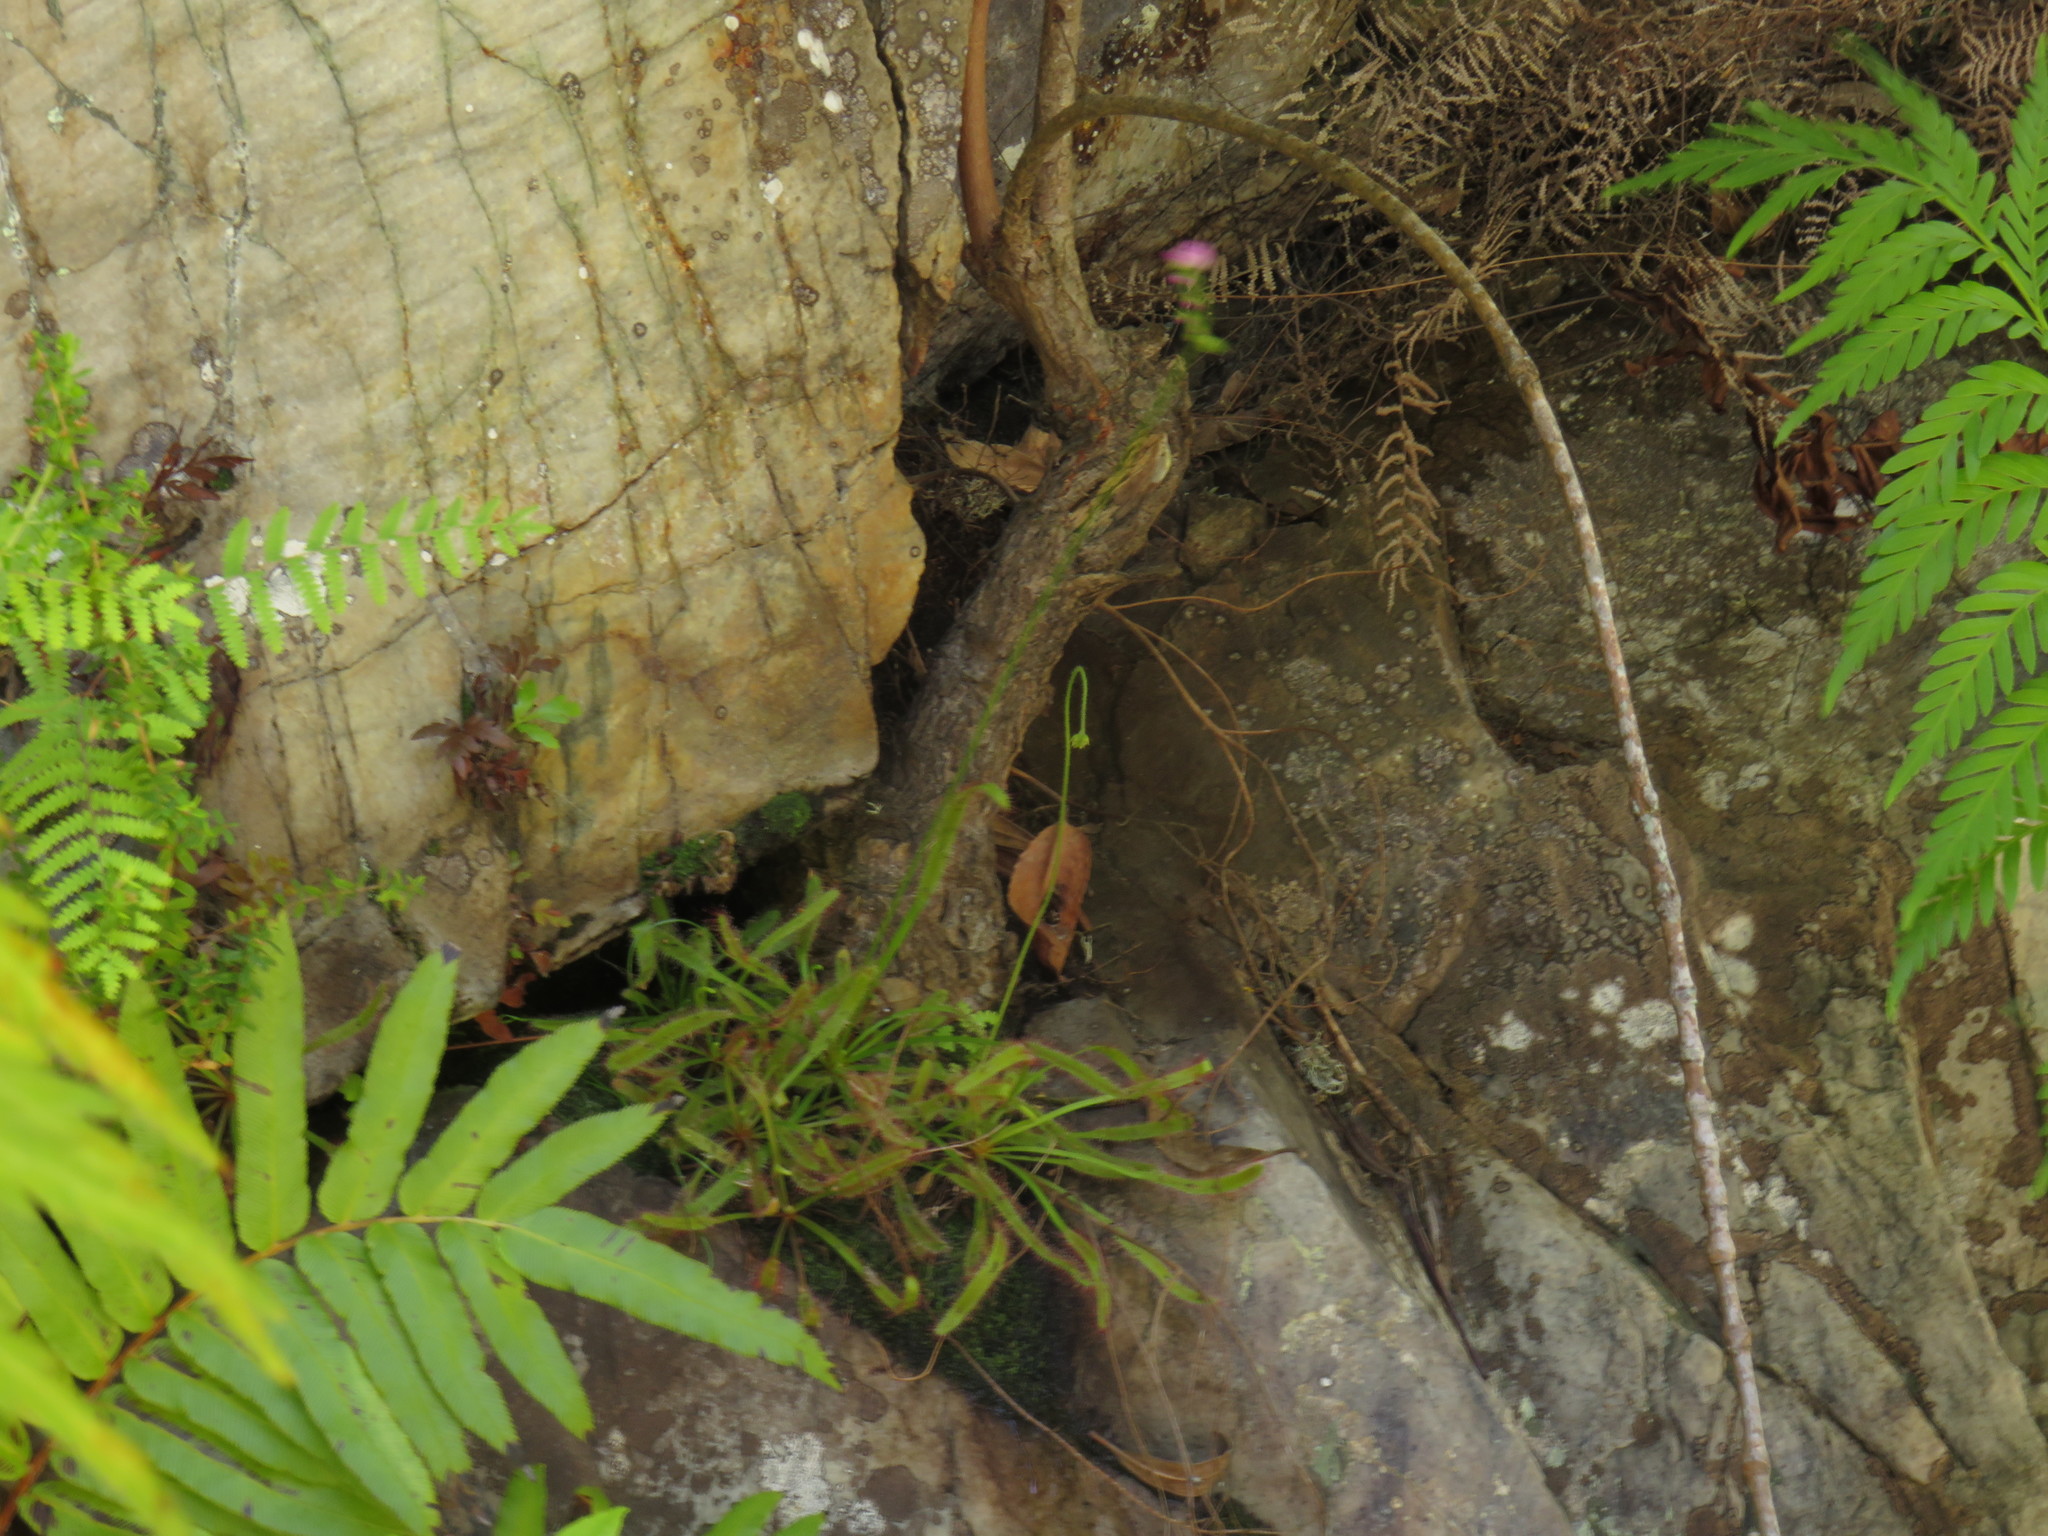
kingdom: Plantae
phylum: Tracheophyta
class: Magnoliopsida
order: Caryophyllales
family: Droseraceae
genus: Drosera
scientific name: Drosera capensis
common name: Cape sundew
